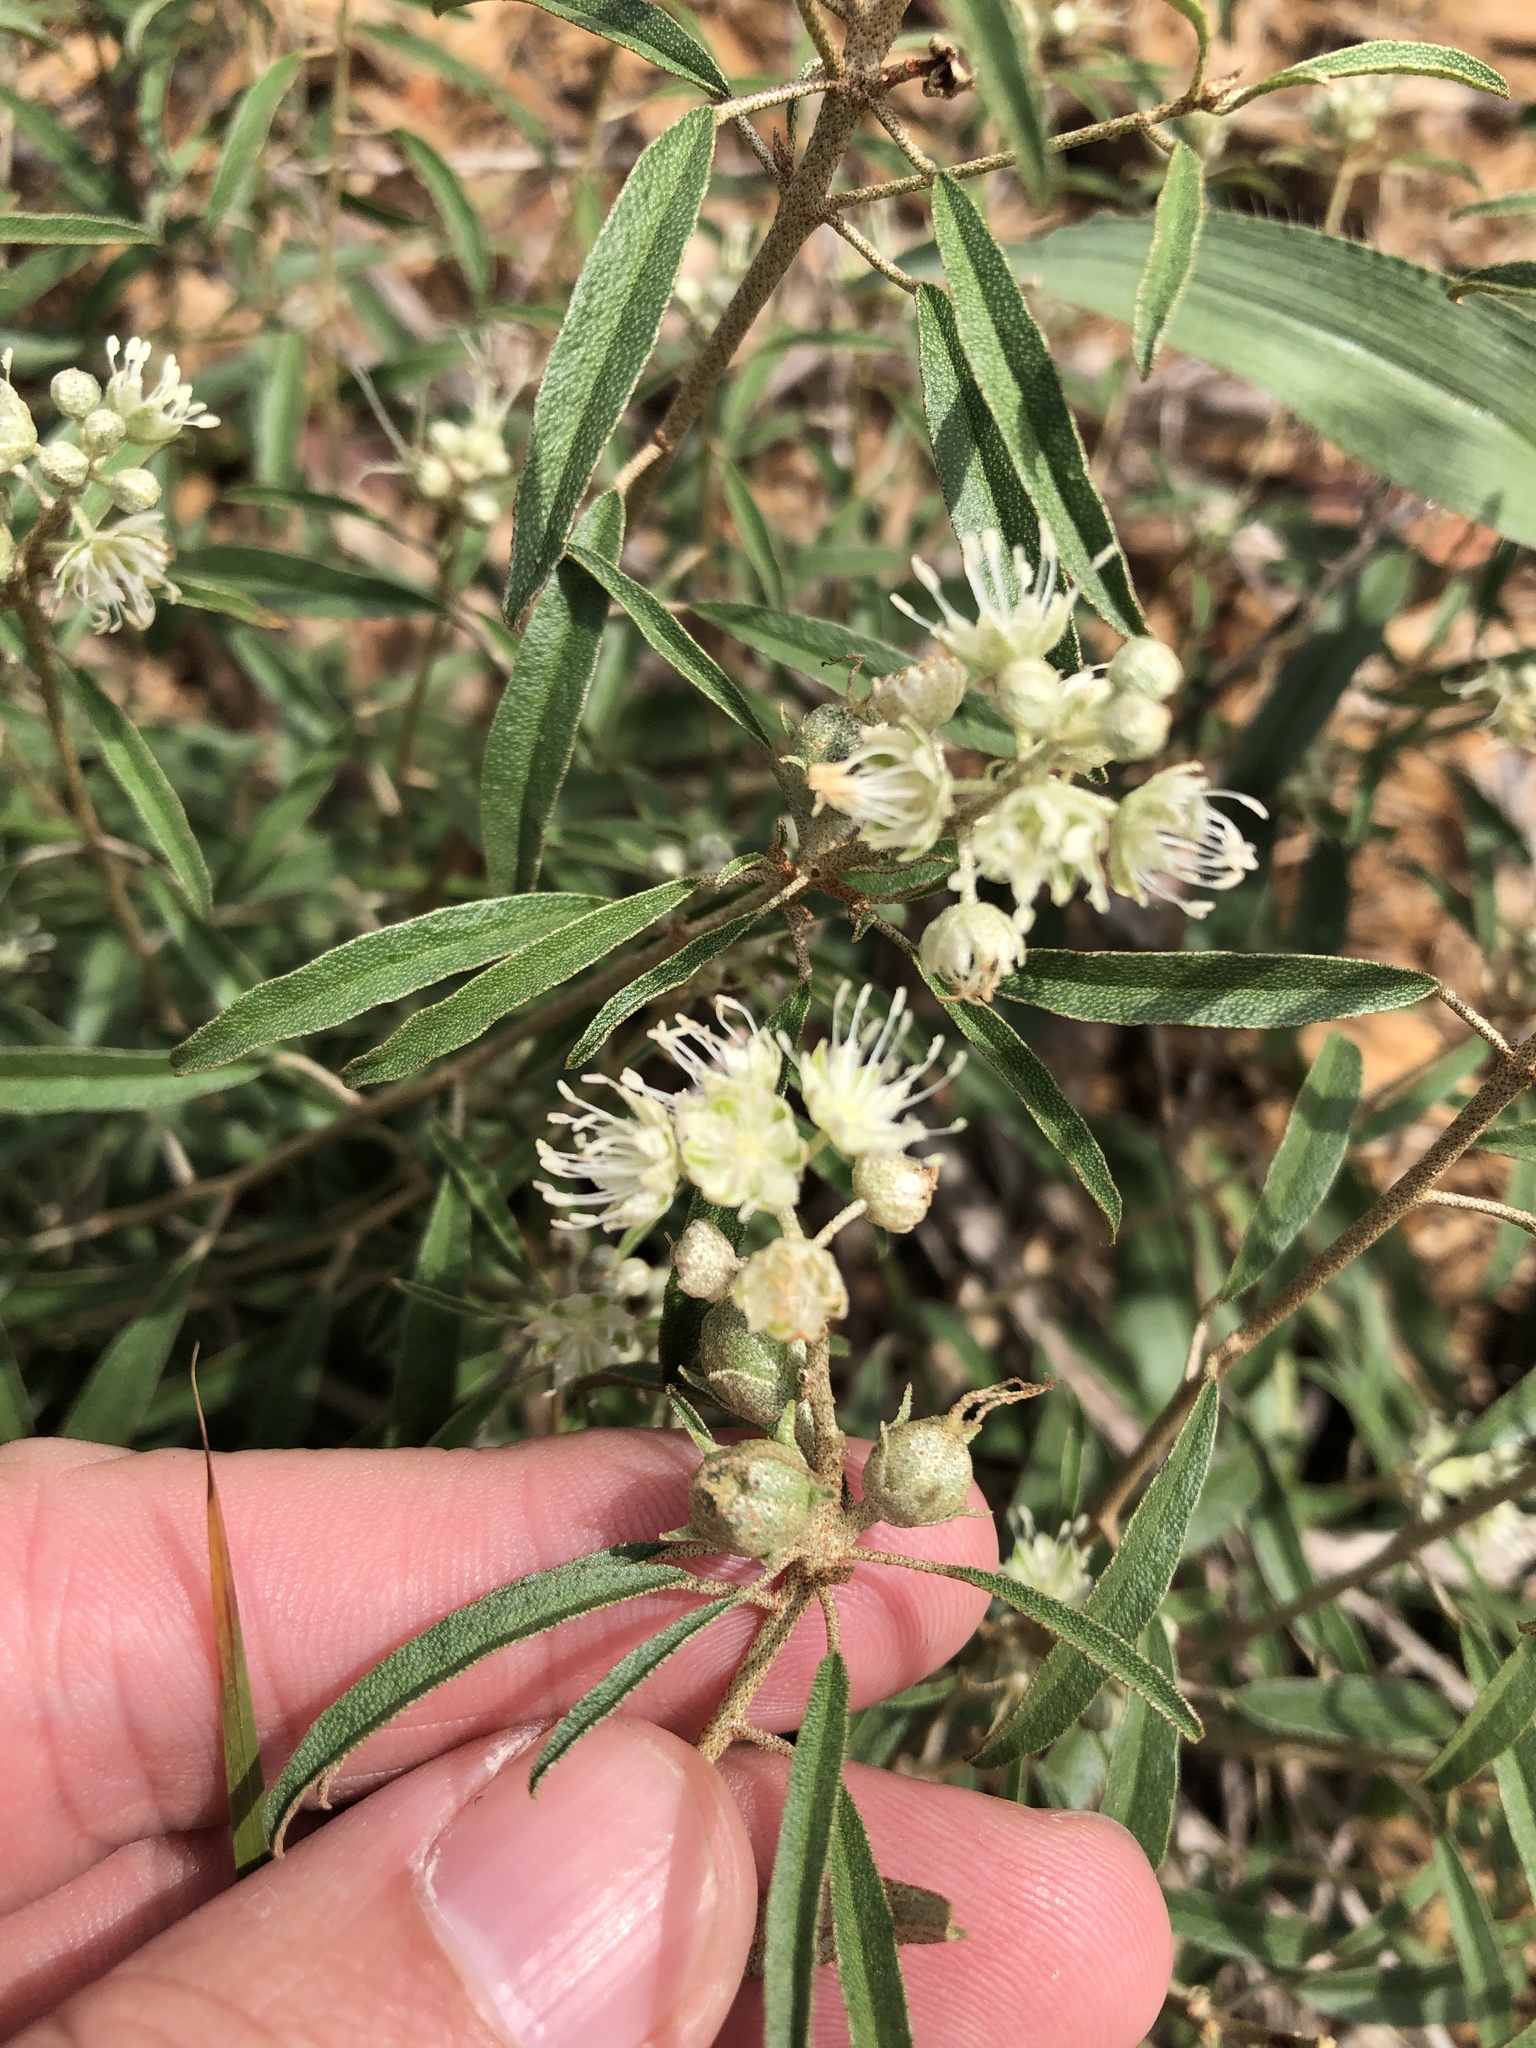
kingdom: Plantae
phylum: Tracheophyta
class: Magnoliopsida
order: Malpighiales
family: Euphorbiaceae
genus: Croton
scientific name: Croton argyranthemus
